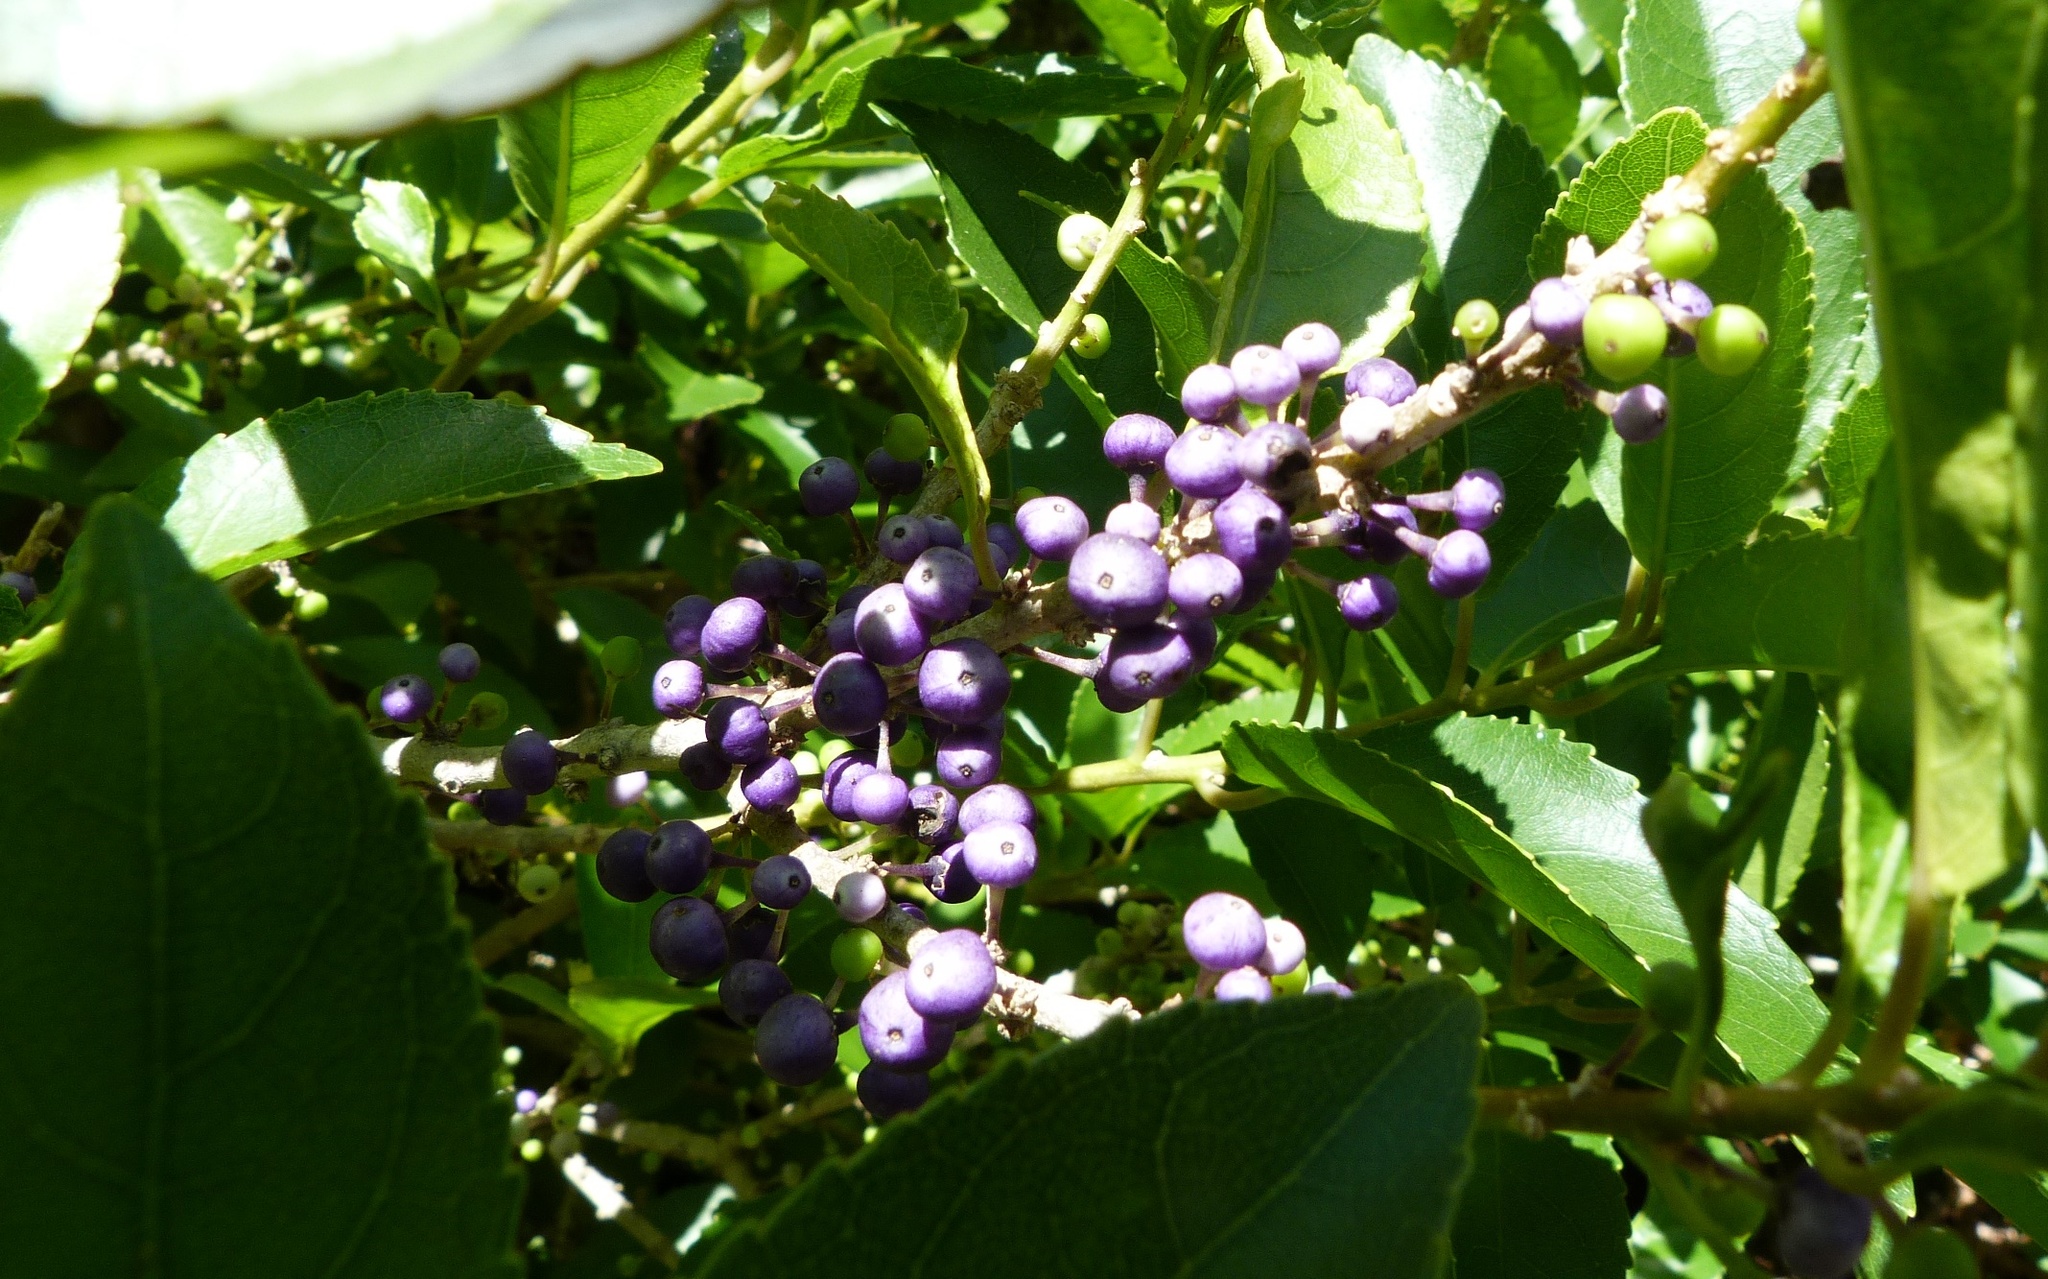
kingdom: Plantae
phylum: Tracheophyta
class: Magnoliopsida
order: Malpighiales
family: Violaceae
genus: Melicytus
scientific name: Melicytus ramiflorus
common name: Mahoe
